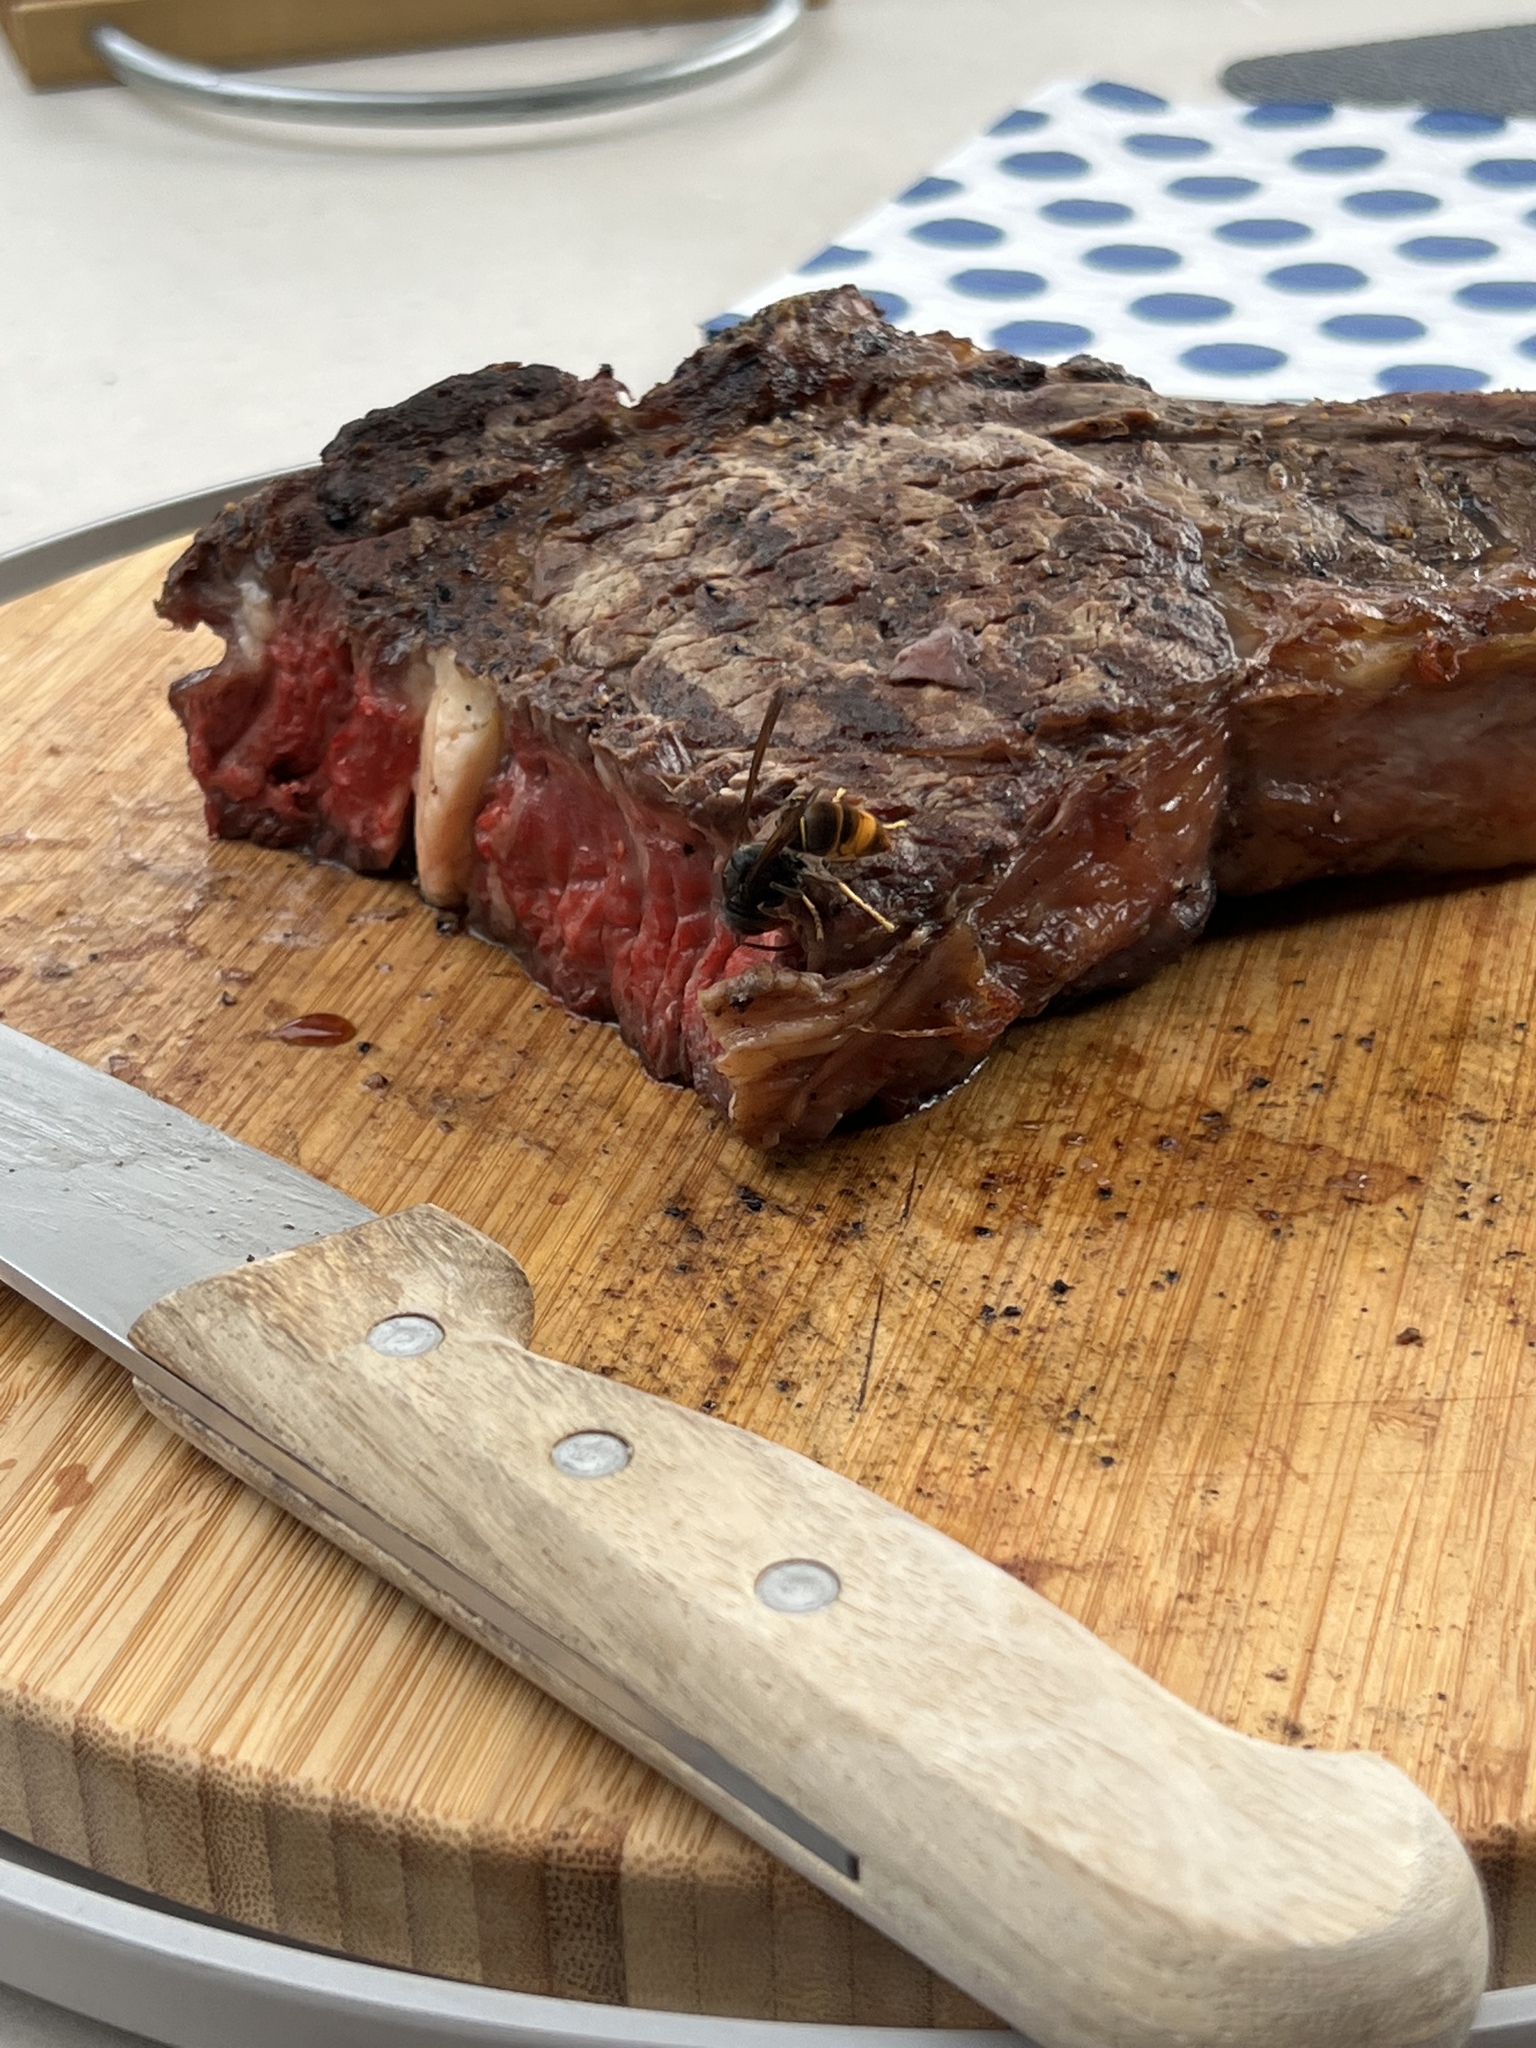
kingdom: Animalia
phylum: Arthropoda
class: Insecta
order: Hymenoptera
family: Vespidae
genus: Vespa
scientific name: Vespa velutina
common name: Asian hornet
